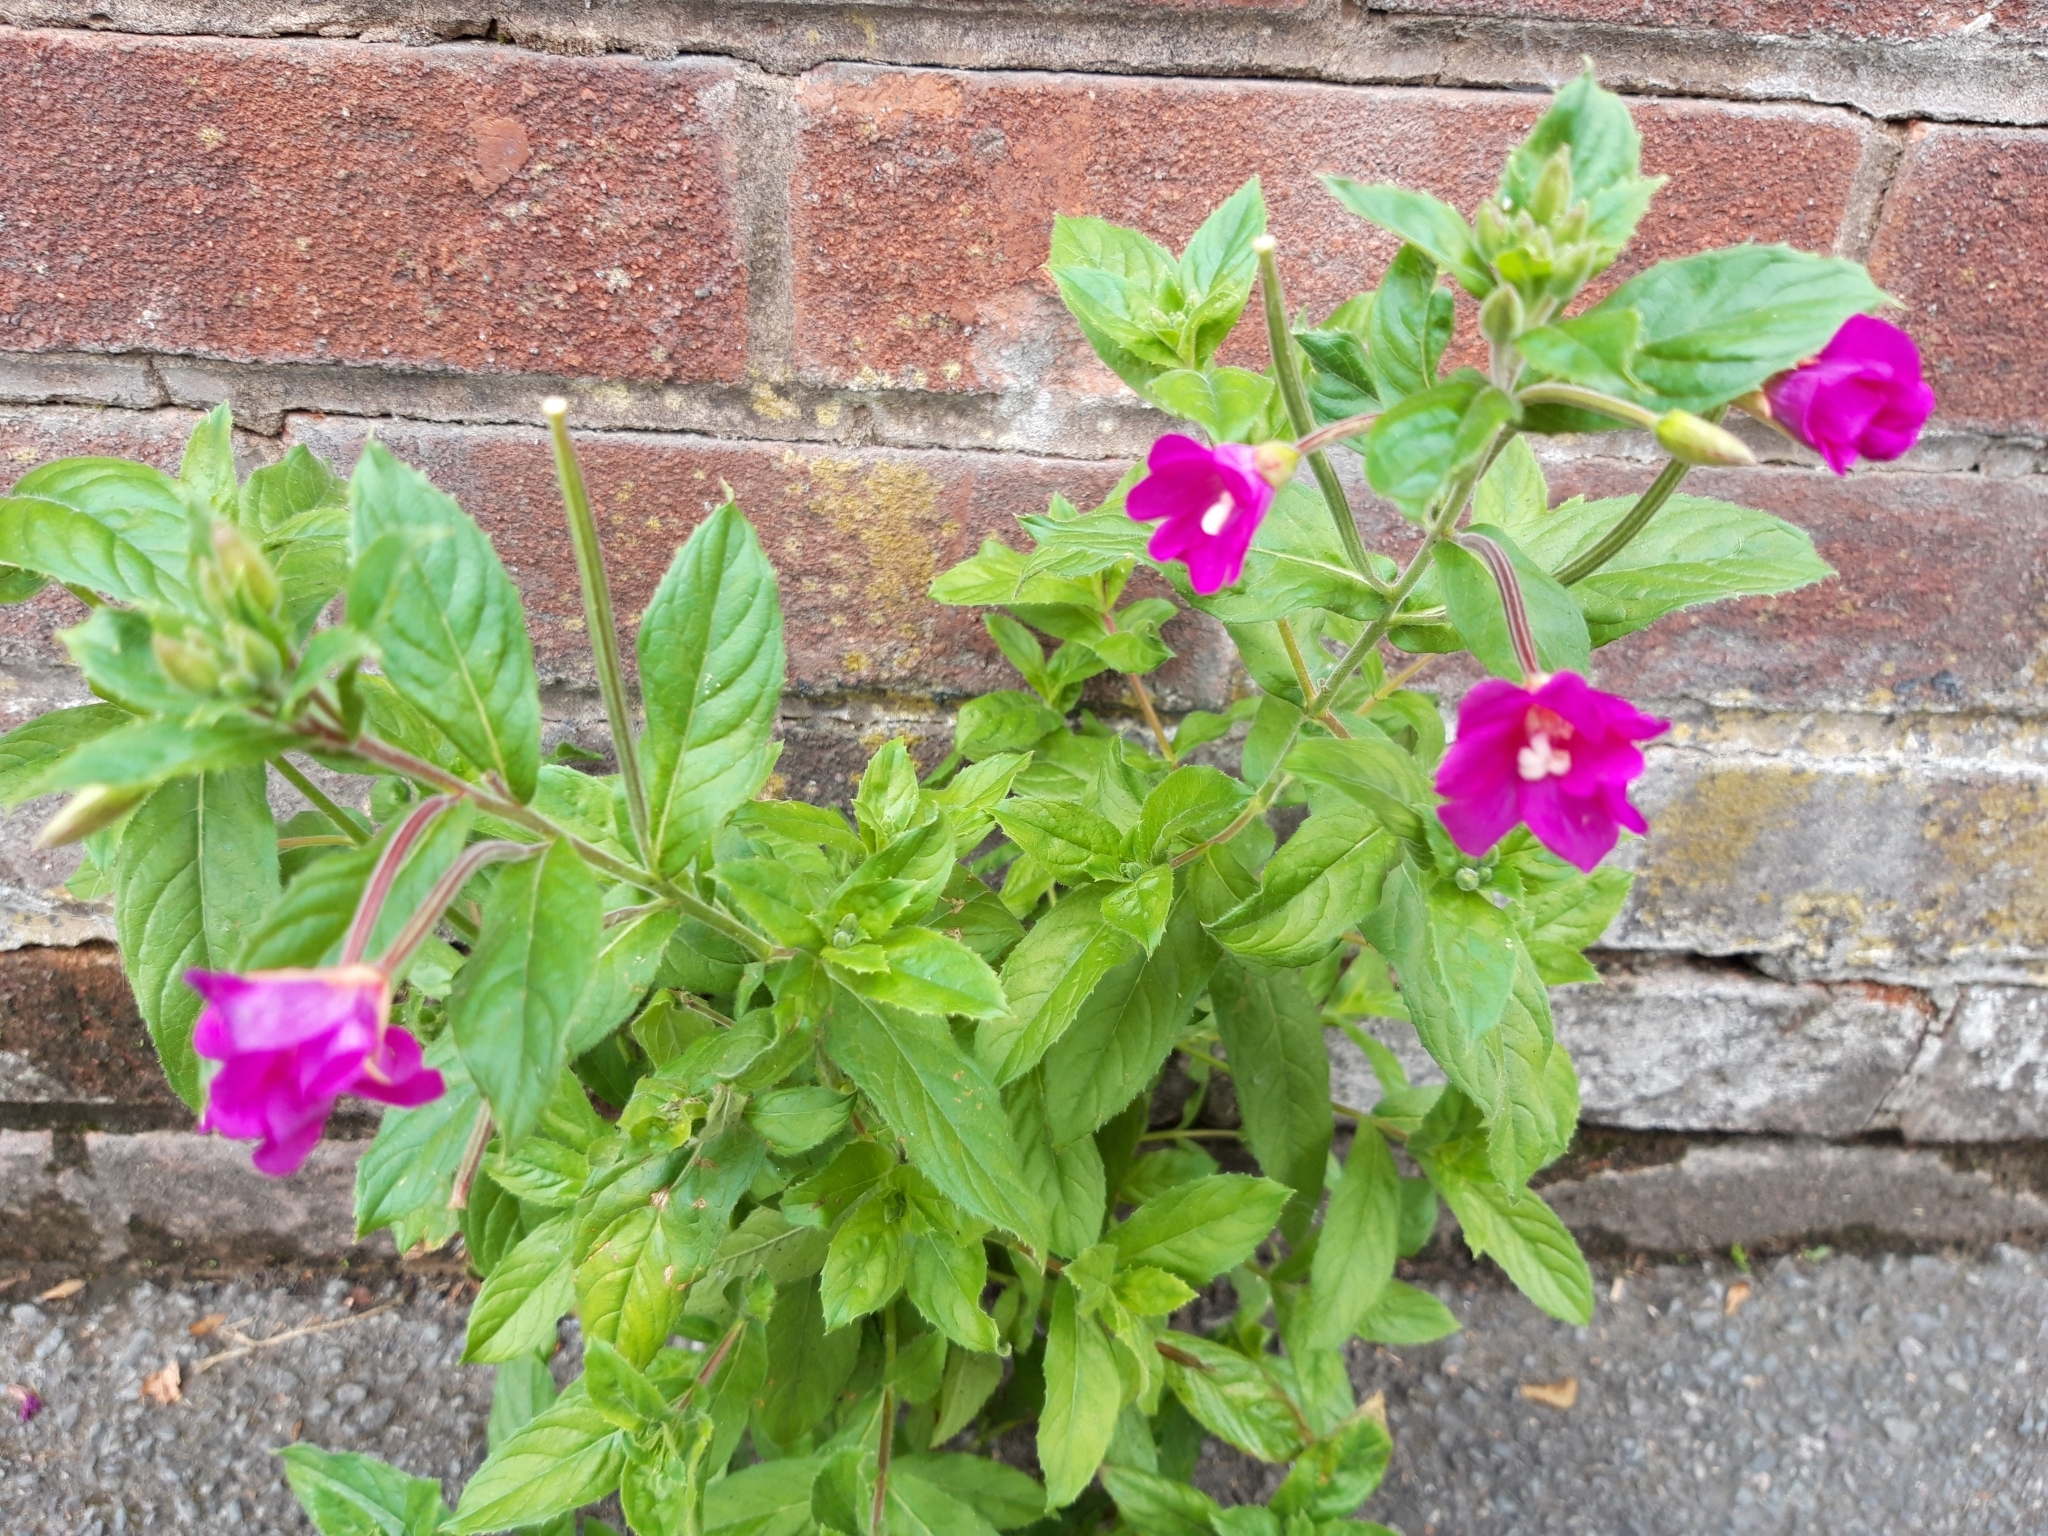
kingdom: Plantae
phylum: Tracheophyta
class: Magnoliopsida
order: Myrtales
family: Onagraceae
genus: Epilobium
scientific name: Epilobium hirsutum
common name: Great willowherb
